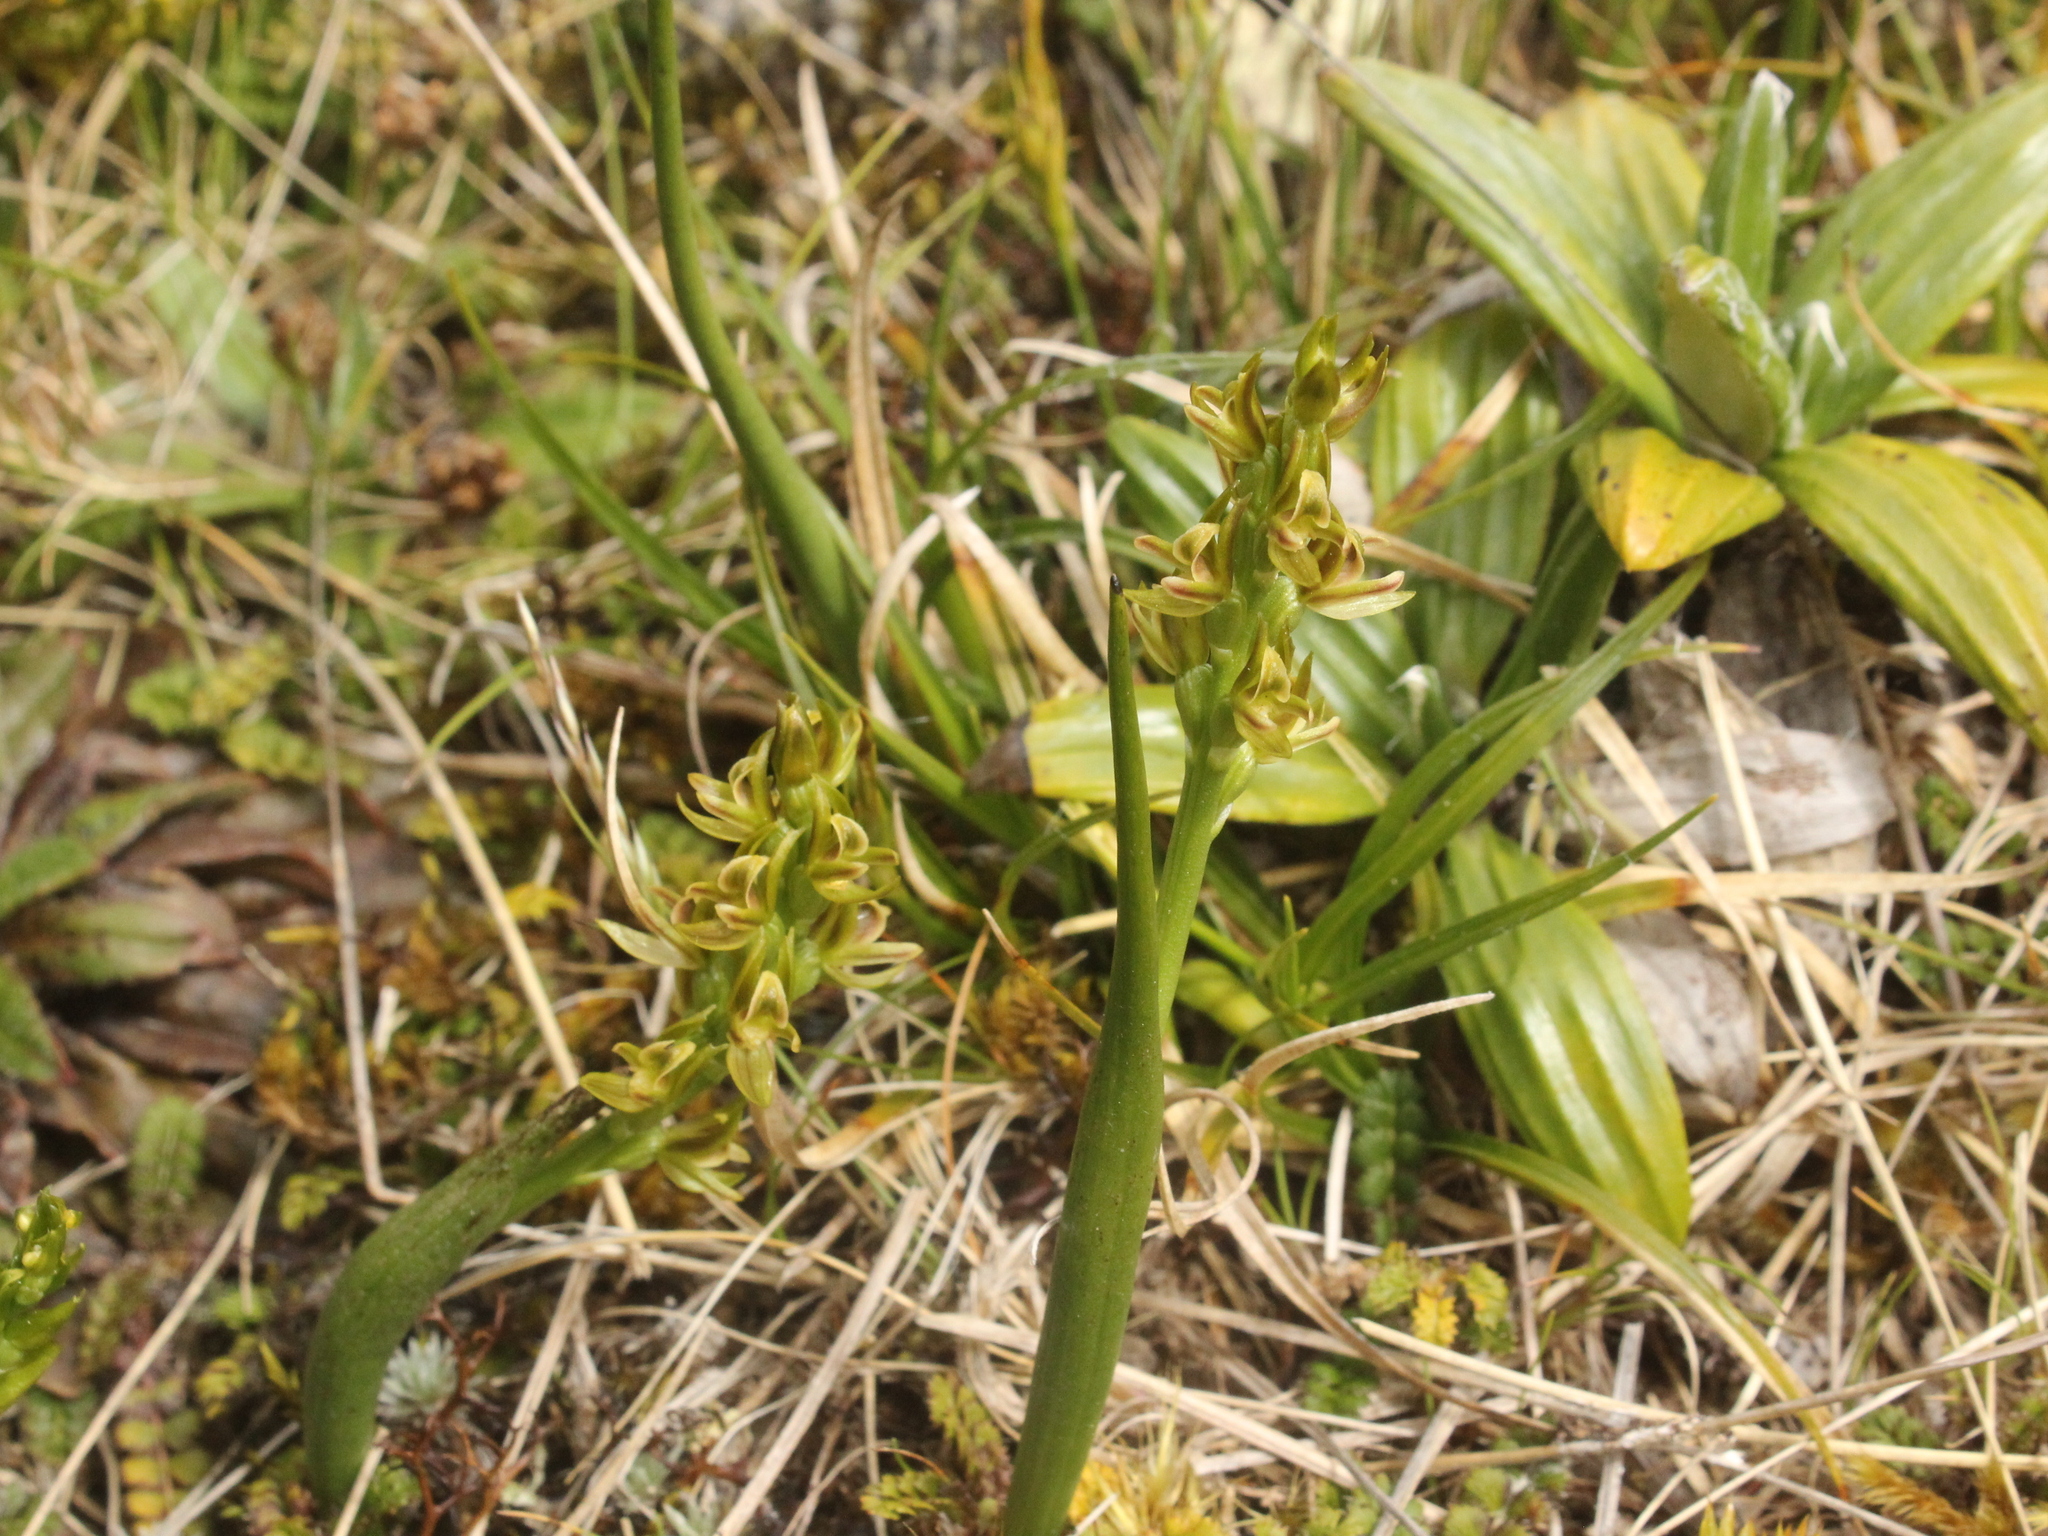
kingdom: Plantae
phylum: Tracheophyta
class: Liliopsida
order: Asparagales
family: Orchidaceae
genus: Prasophyllum
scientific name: Prasophyllum colensoi
